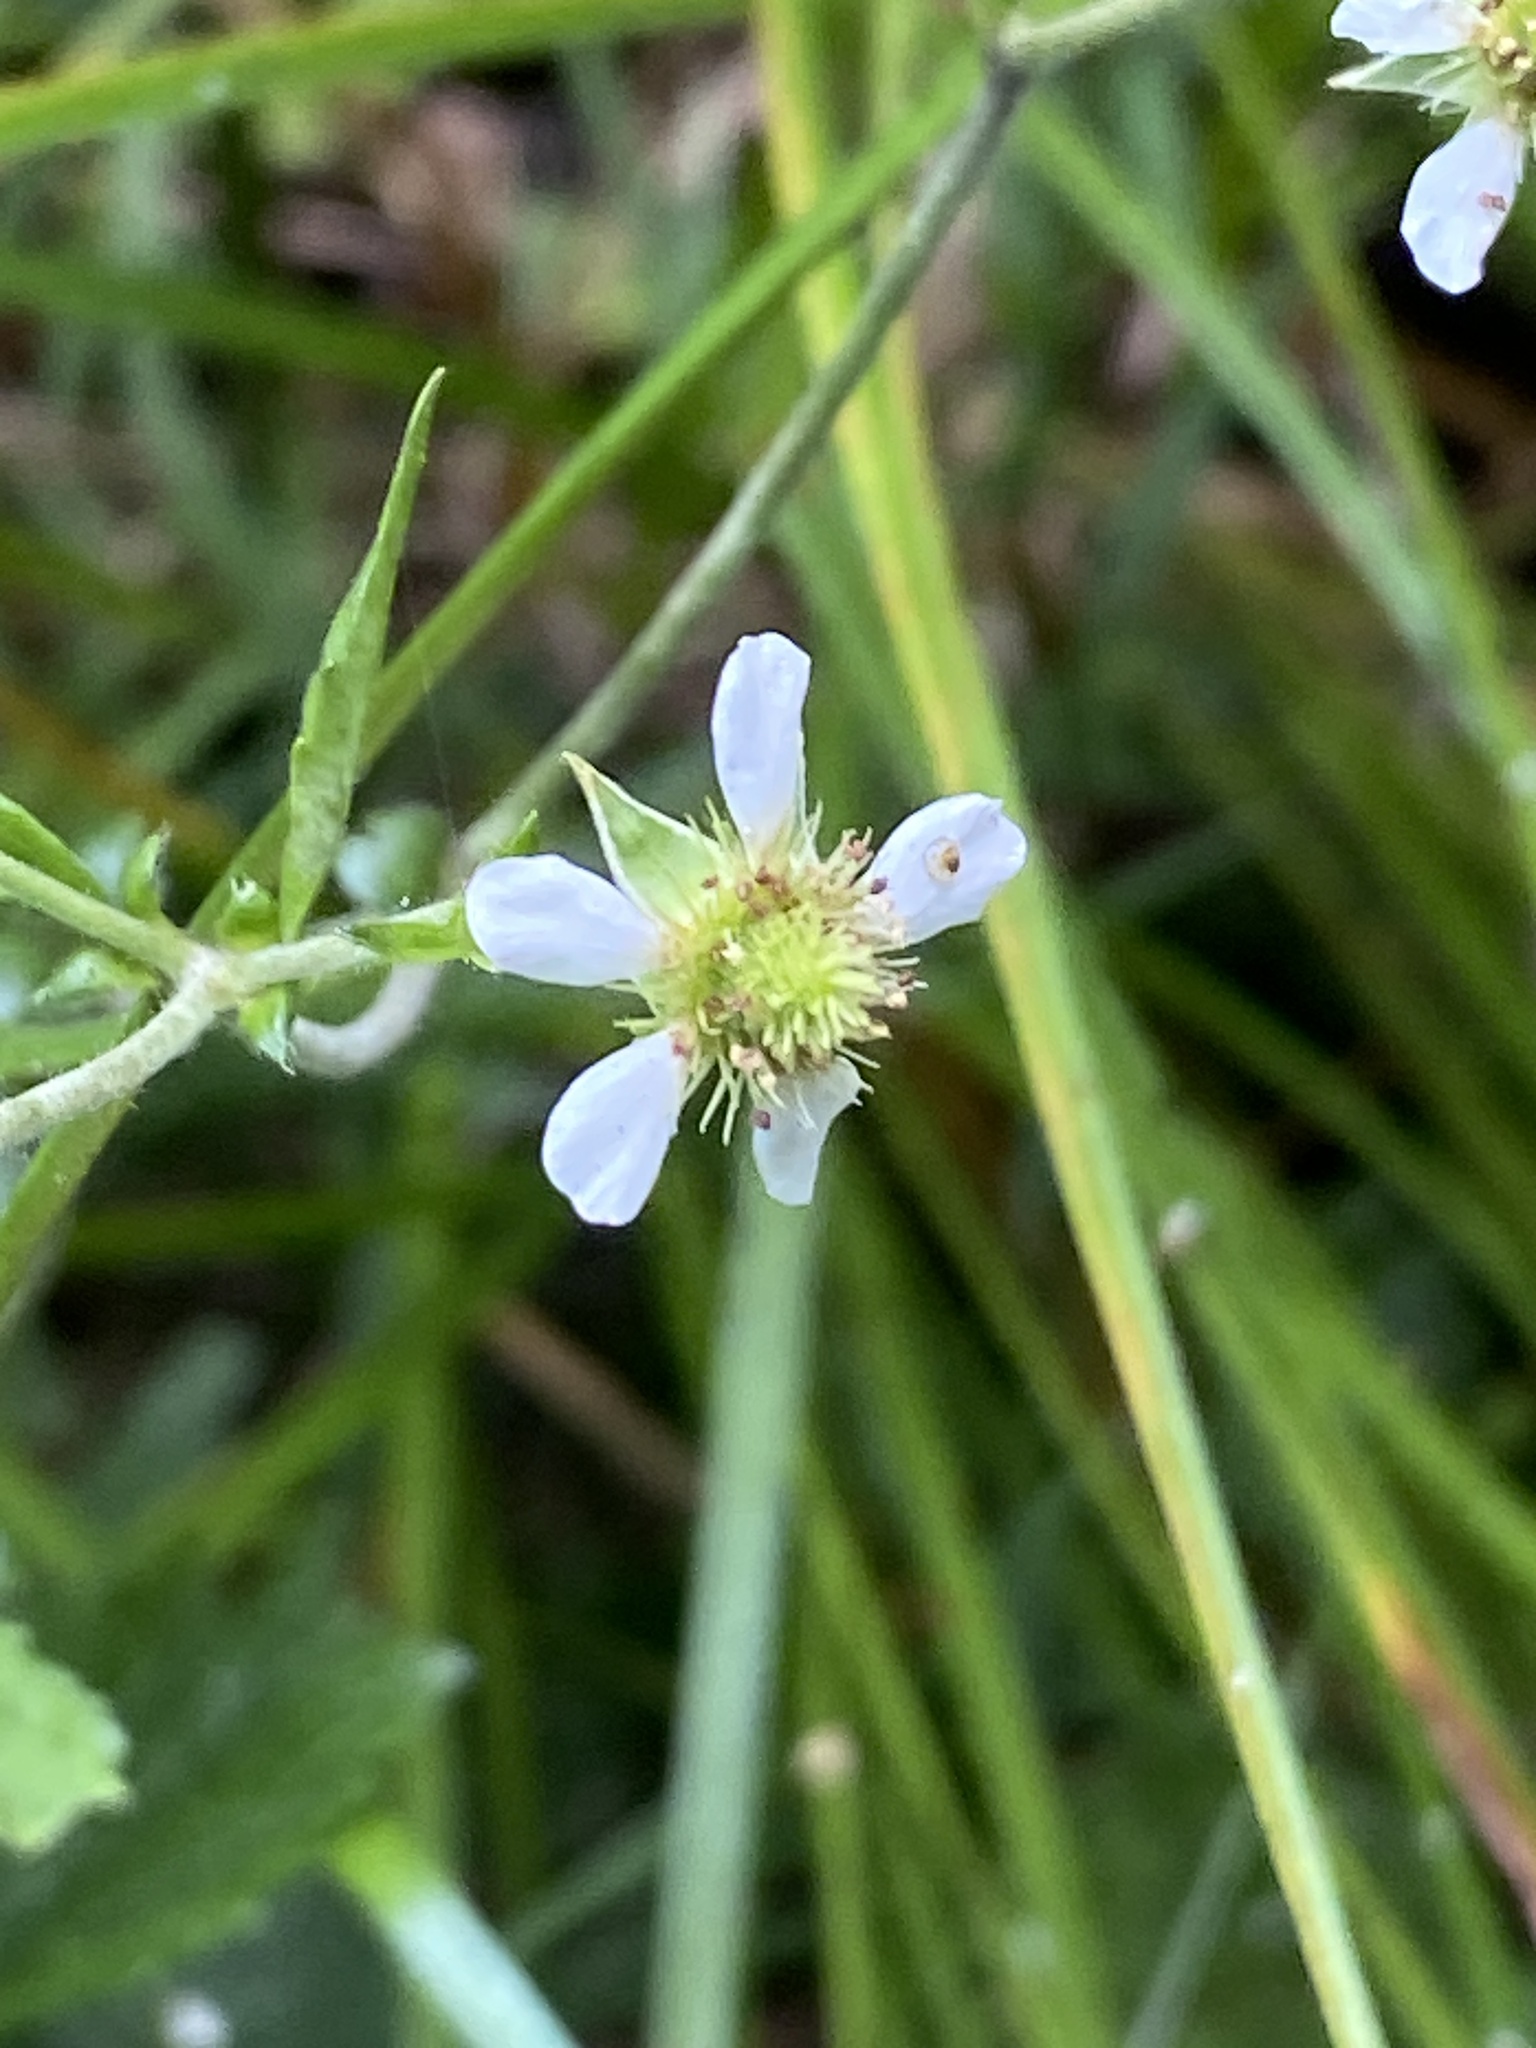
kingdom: Plantae
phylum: Tracheophyta
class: Magnoliopsida
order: Rosales
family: Rosaceae
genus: Geum
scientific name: Geum canadense
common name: White avens
